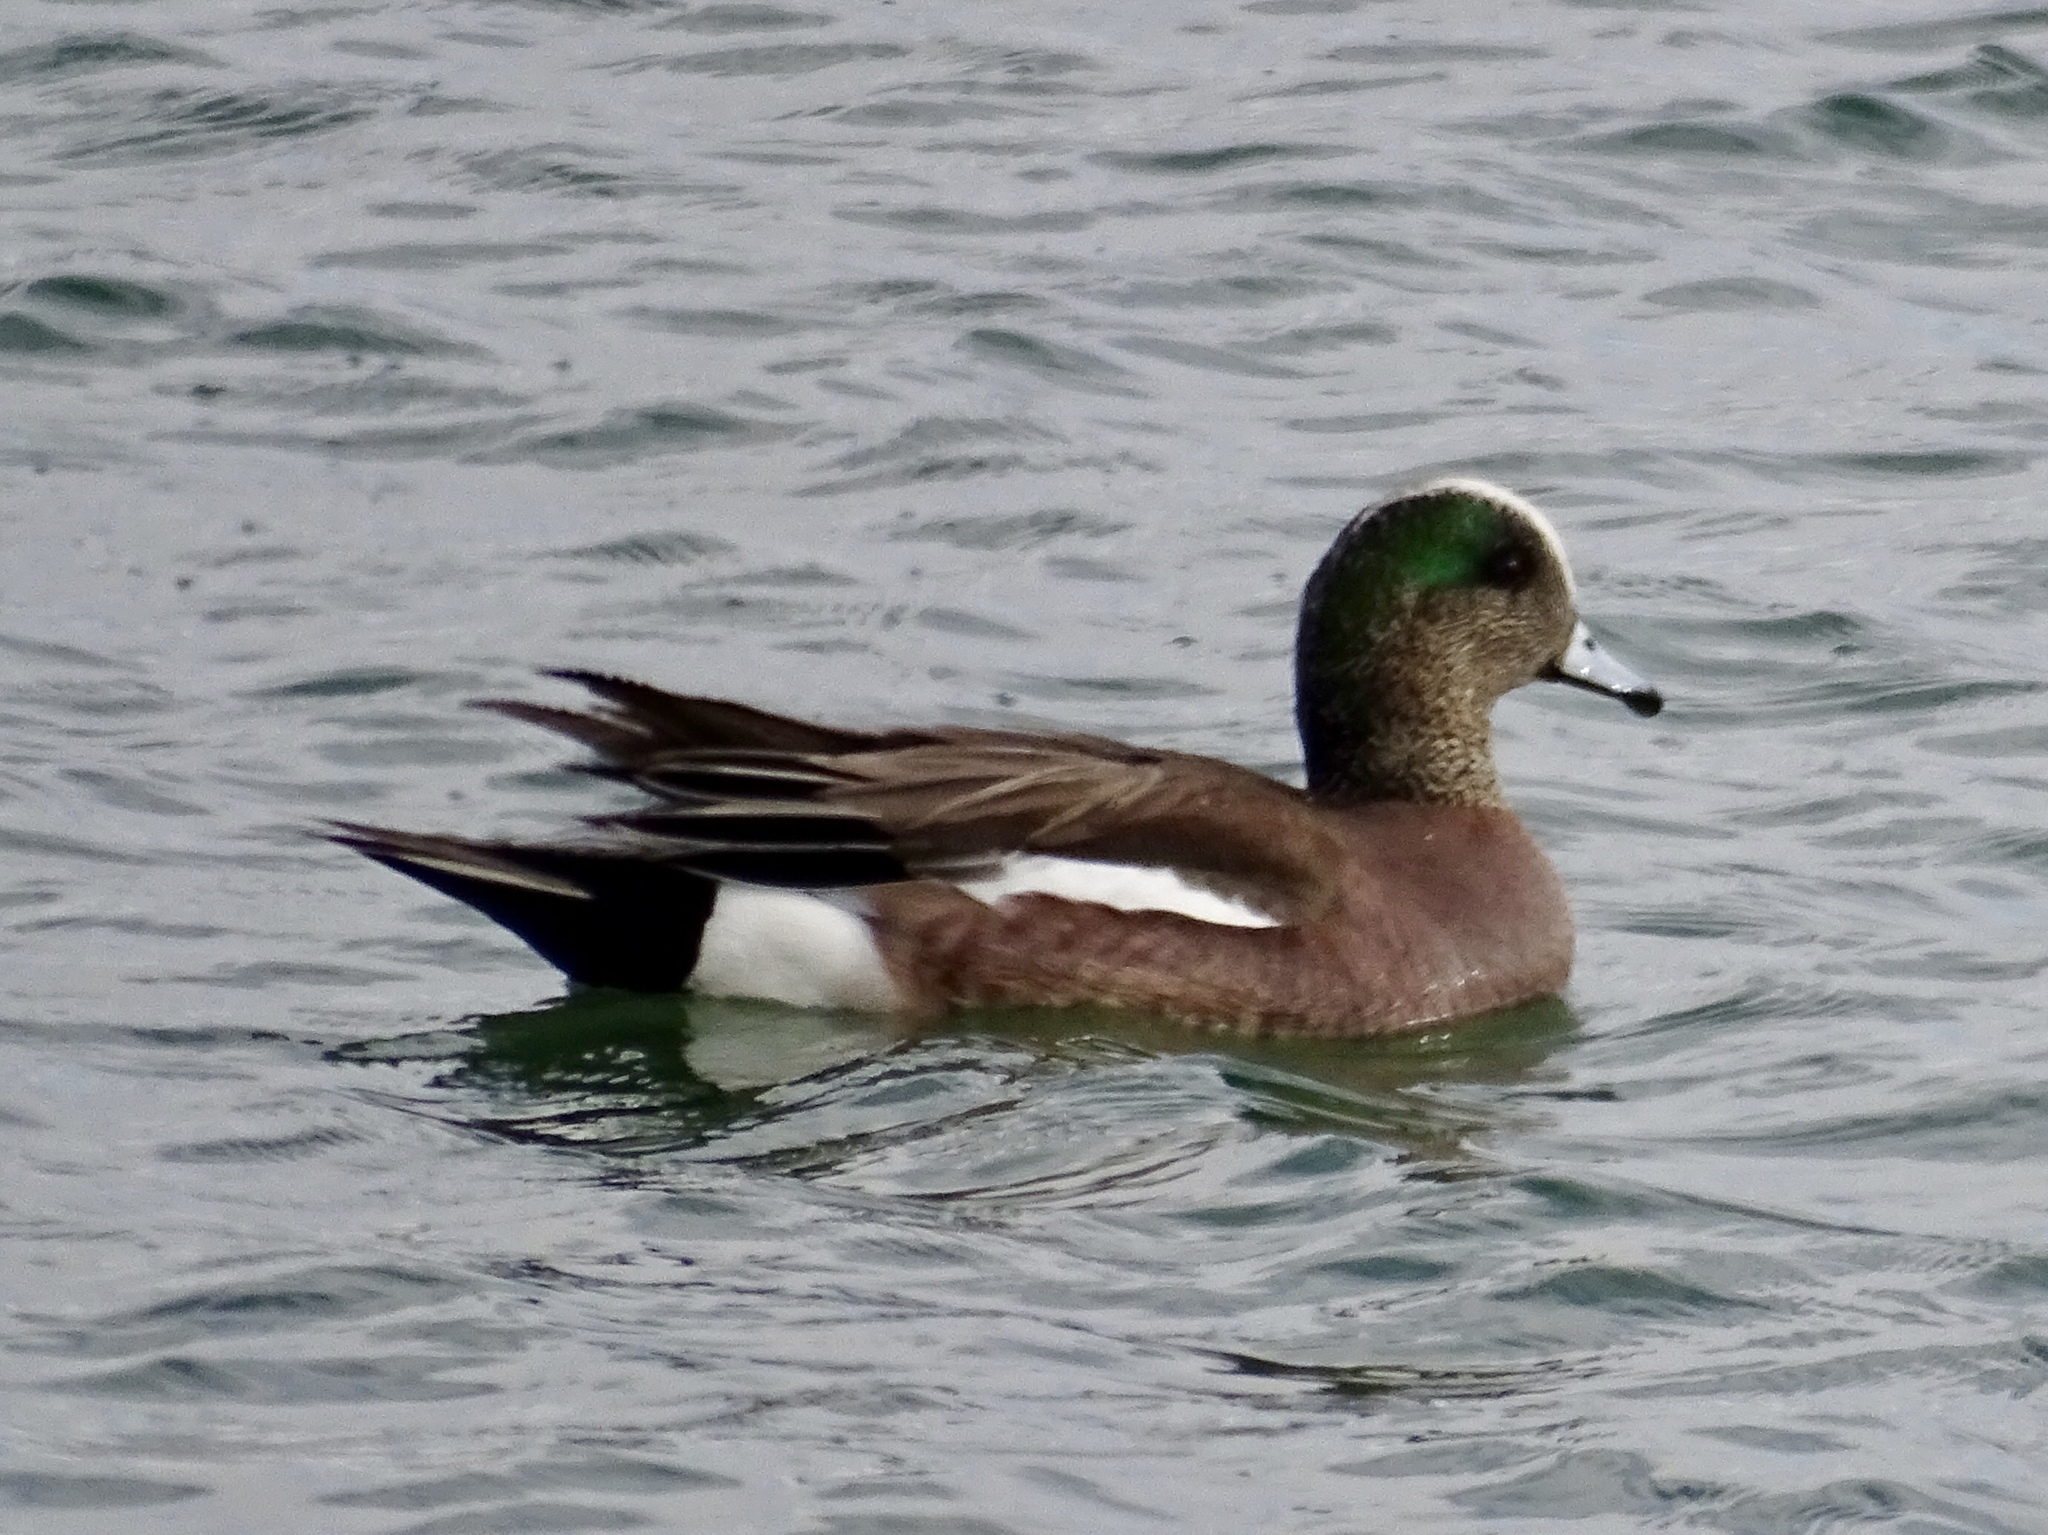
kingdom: Animalia
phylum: Chordata
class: Aves
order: Anseriformes
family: Anatidae
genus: Mareca
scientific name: Mareca americana
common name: American wigeon
